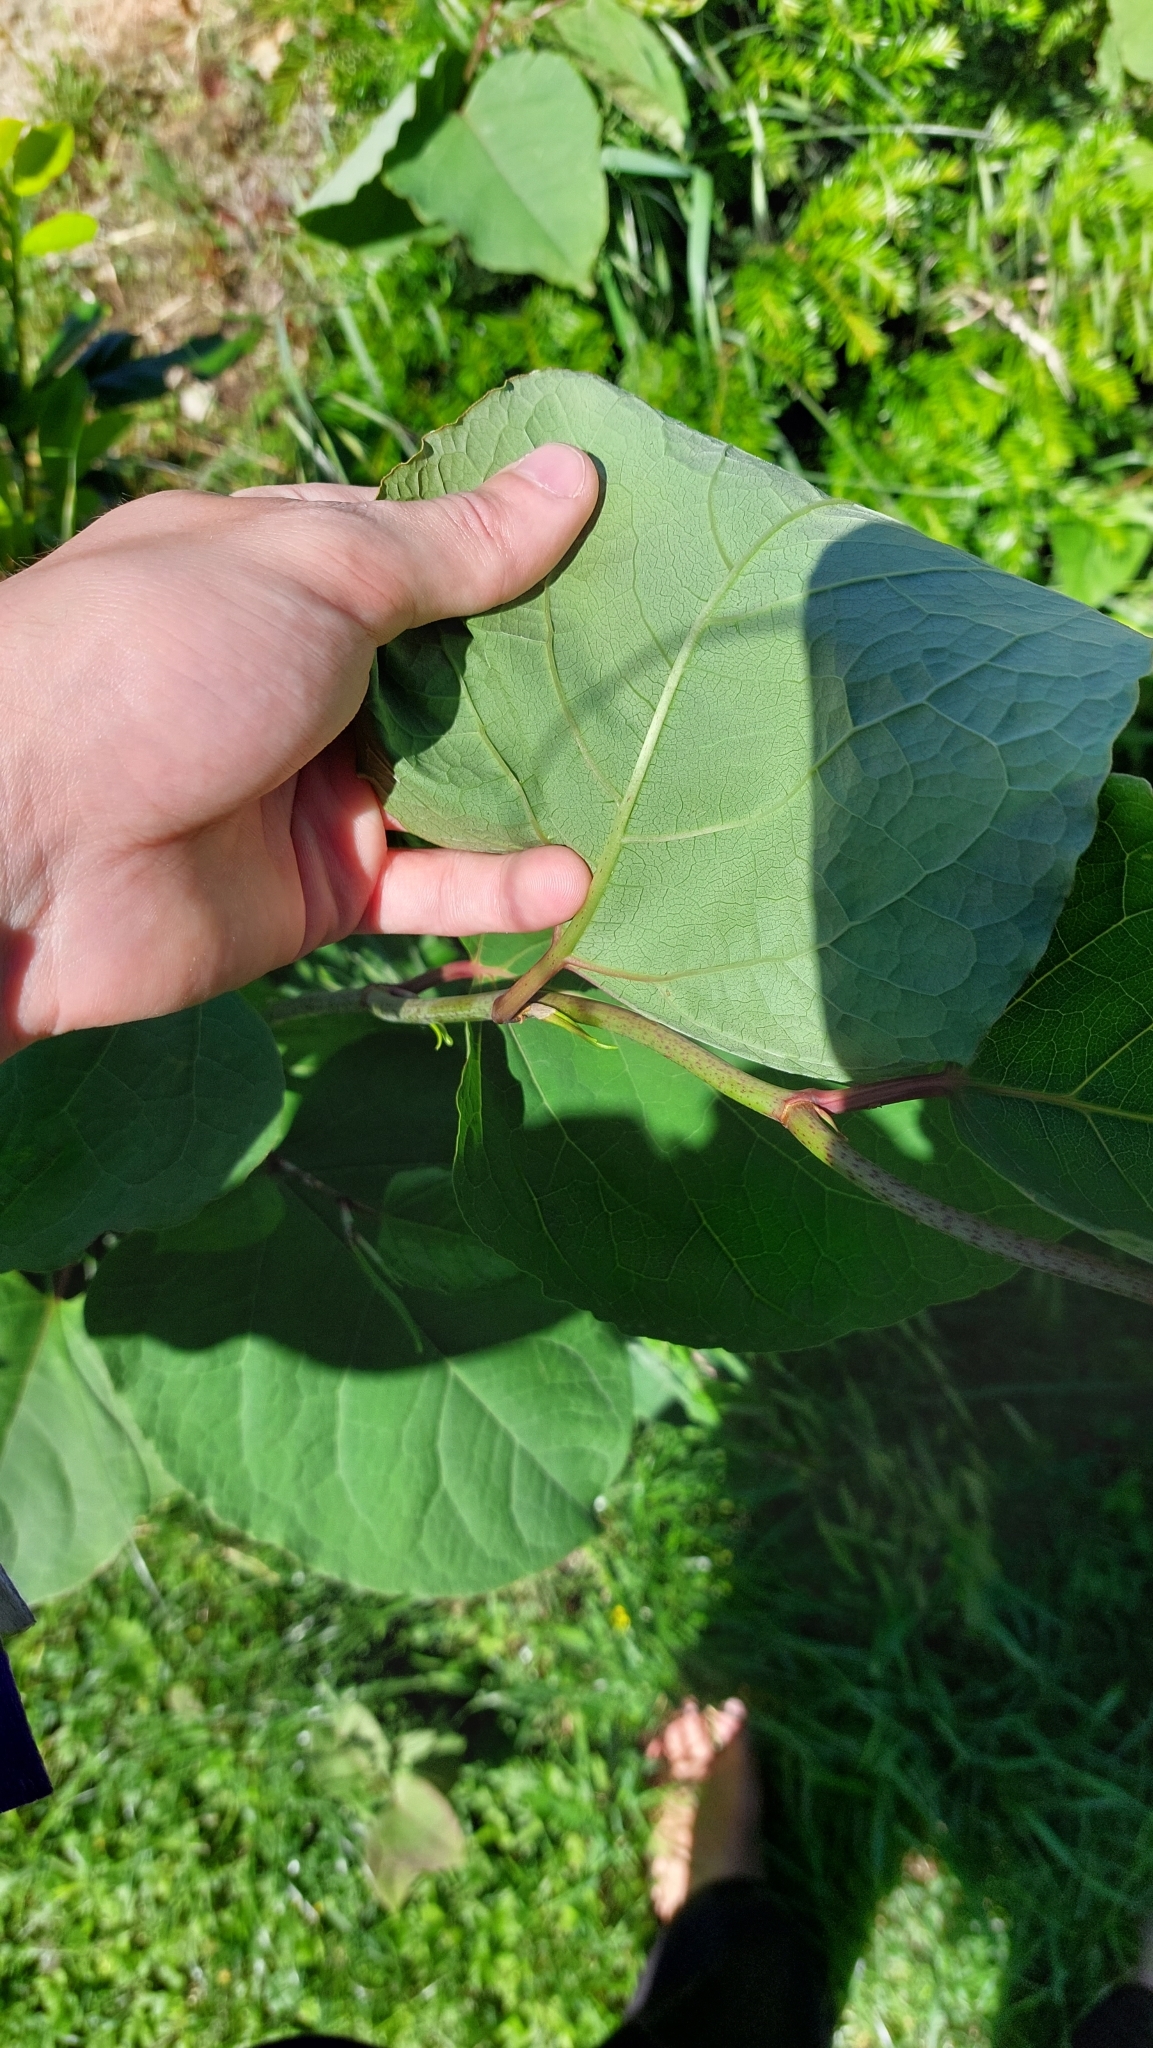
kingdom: Plantae
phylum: Tracheophyta
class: Magnoliopsida
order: Caryophyllales
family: Polygonaceae
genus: Reynoutria
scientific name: Reynoutria bohemica
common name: Bohemian knotweed
